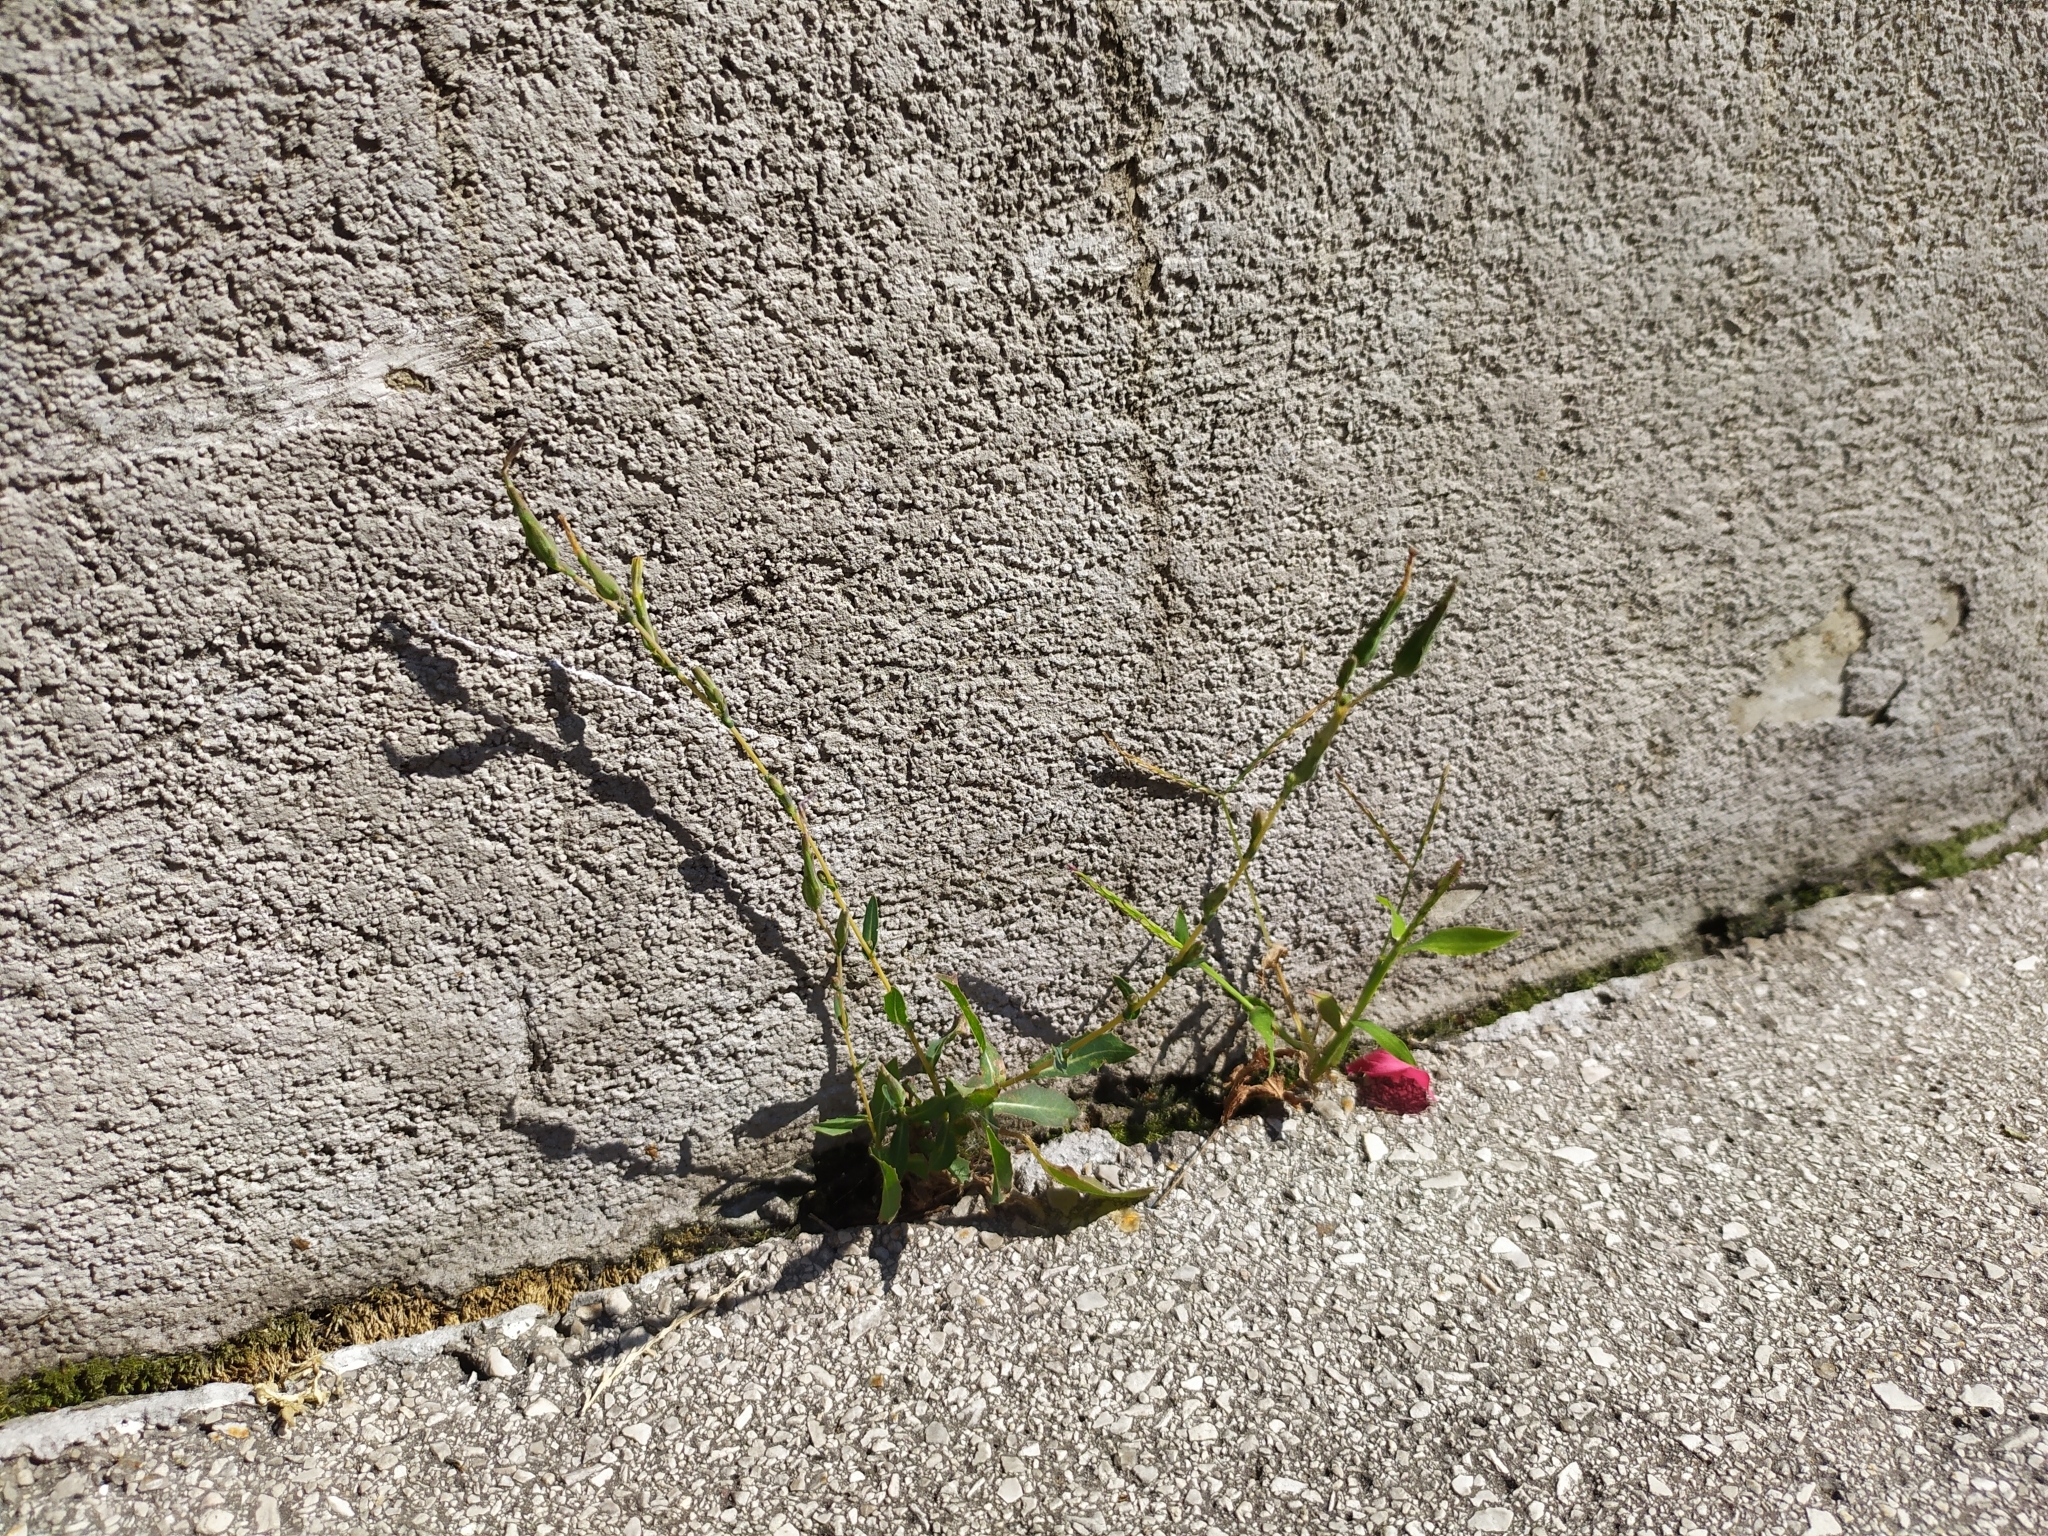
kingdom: Plantae
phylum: Tracheophyta
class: Magnoliopsida
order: Asterales
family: Asteraceae
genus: Lactuca
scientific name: Lactuca serriola
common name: Prickly lettuce
